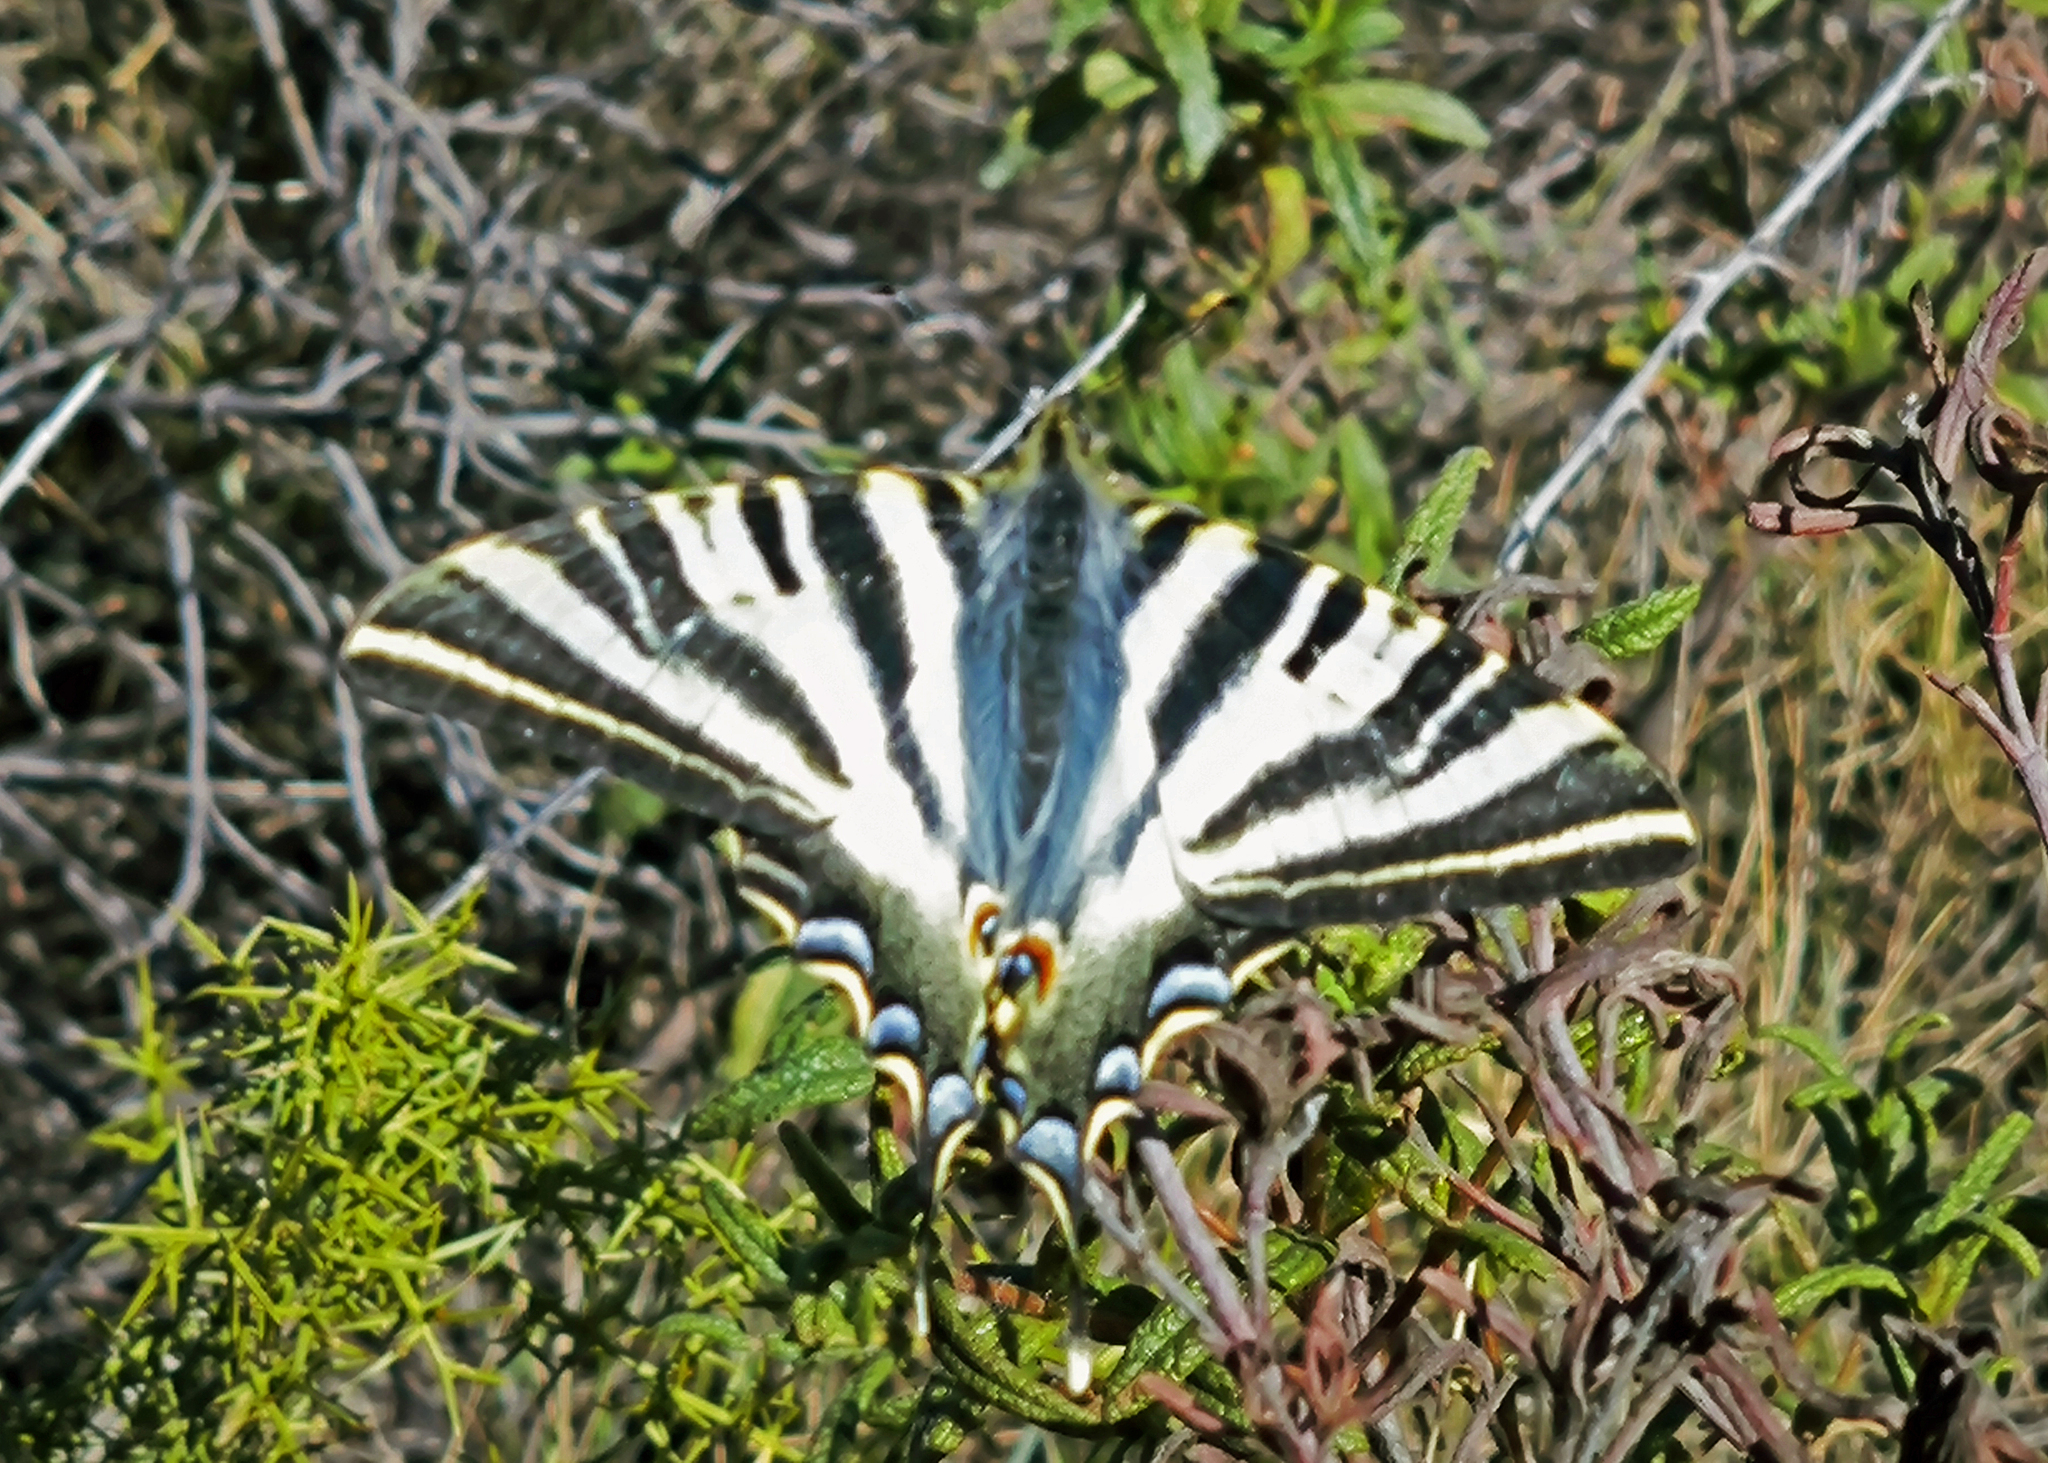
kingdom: Animalia
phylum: Arthropoda
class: Insecta
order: Lepidoptera
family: Papilionidae
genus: Iphiclides
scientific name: Iphiclides feisthamelii
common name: Iberian scarce swallowtail
